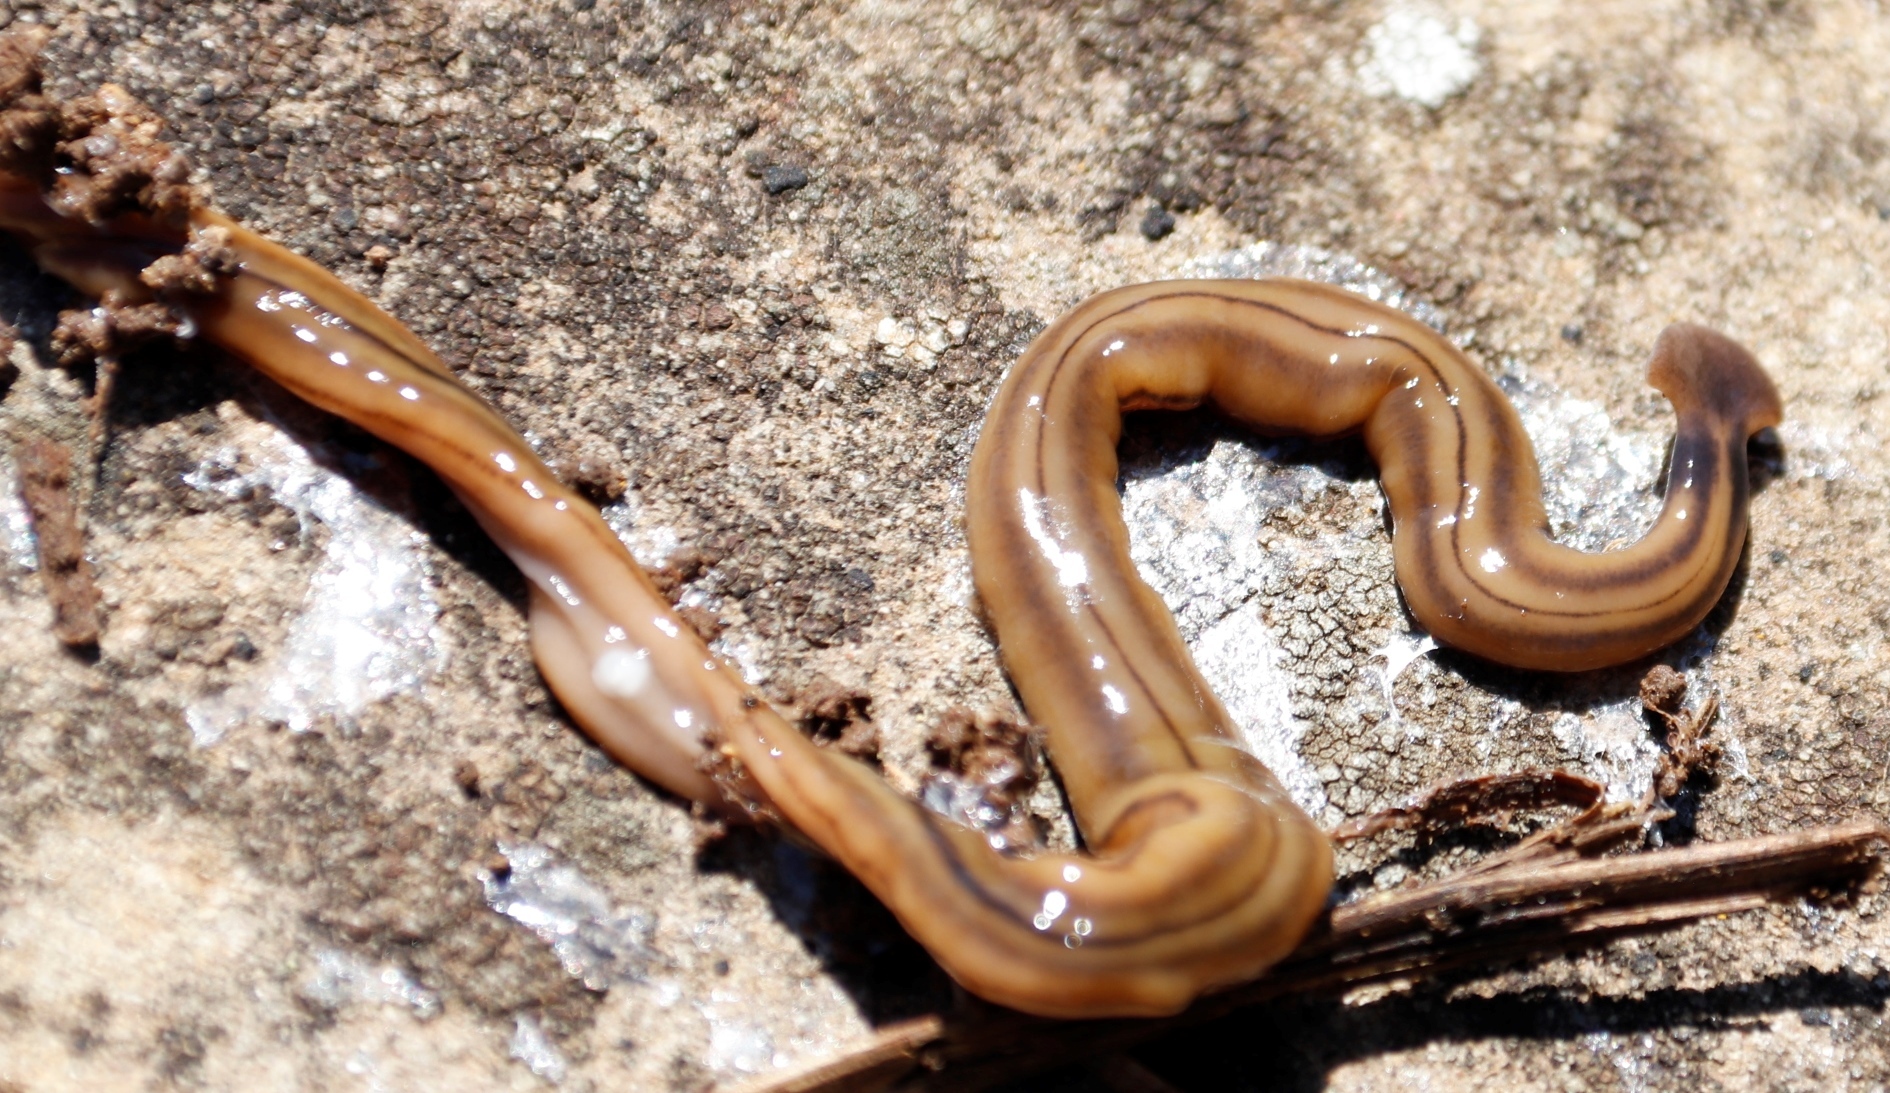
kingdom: Animalia
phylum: Platyhelminthes
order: Tricladida
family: Geoplanidae
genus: Bipalium
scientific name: Bipalium kewense
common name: Hammerhead flatworm
